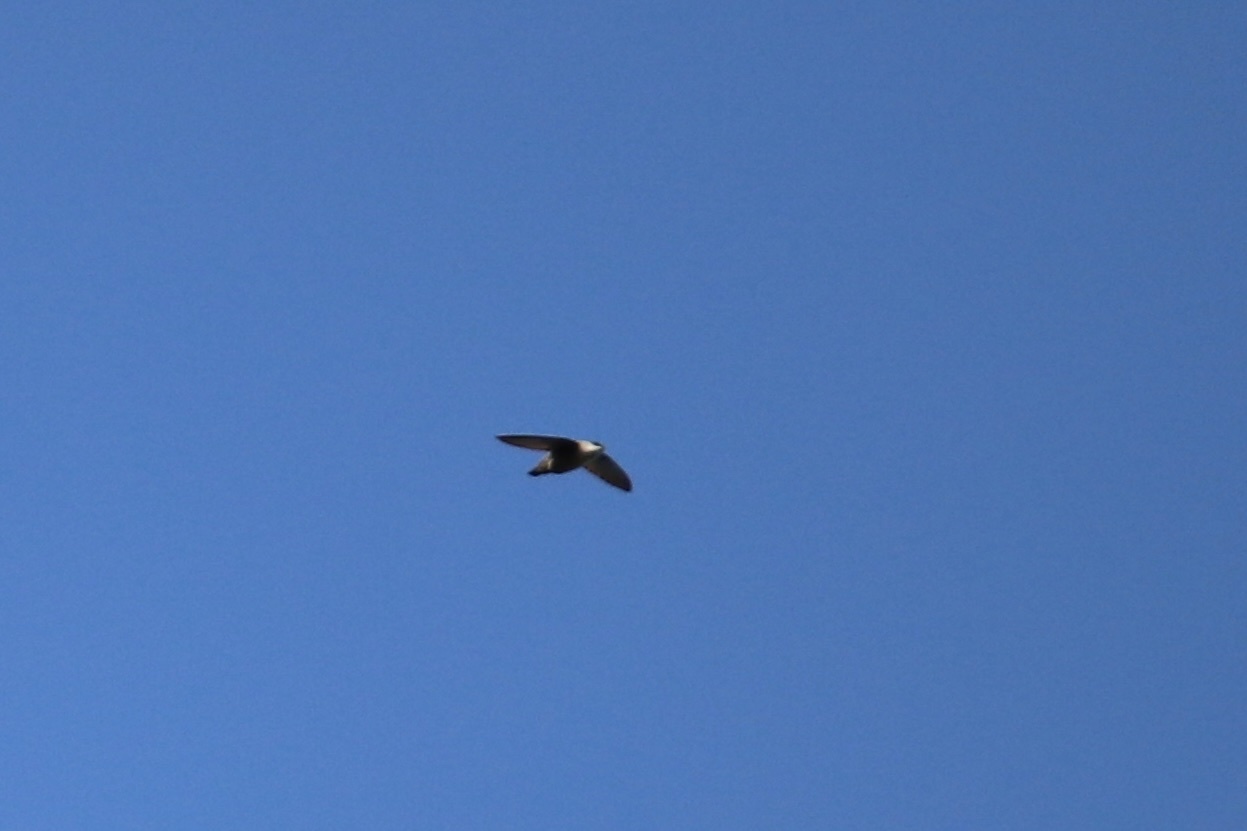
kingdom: Animalia
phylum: Chordata
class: Aves
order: Apodiformes
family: Apodidae
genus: Chaetura
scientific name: Chaetura vauxi
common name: Vaux's swift
